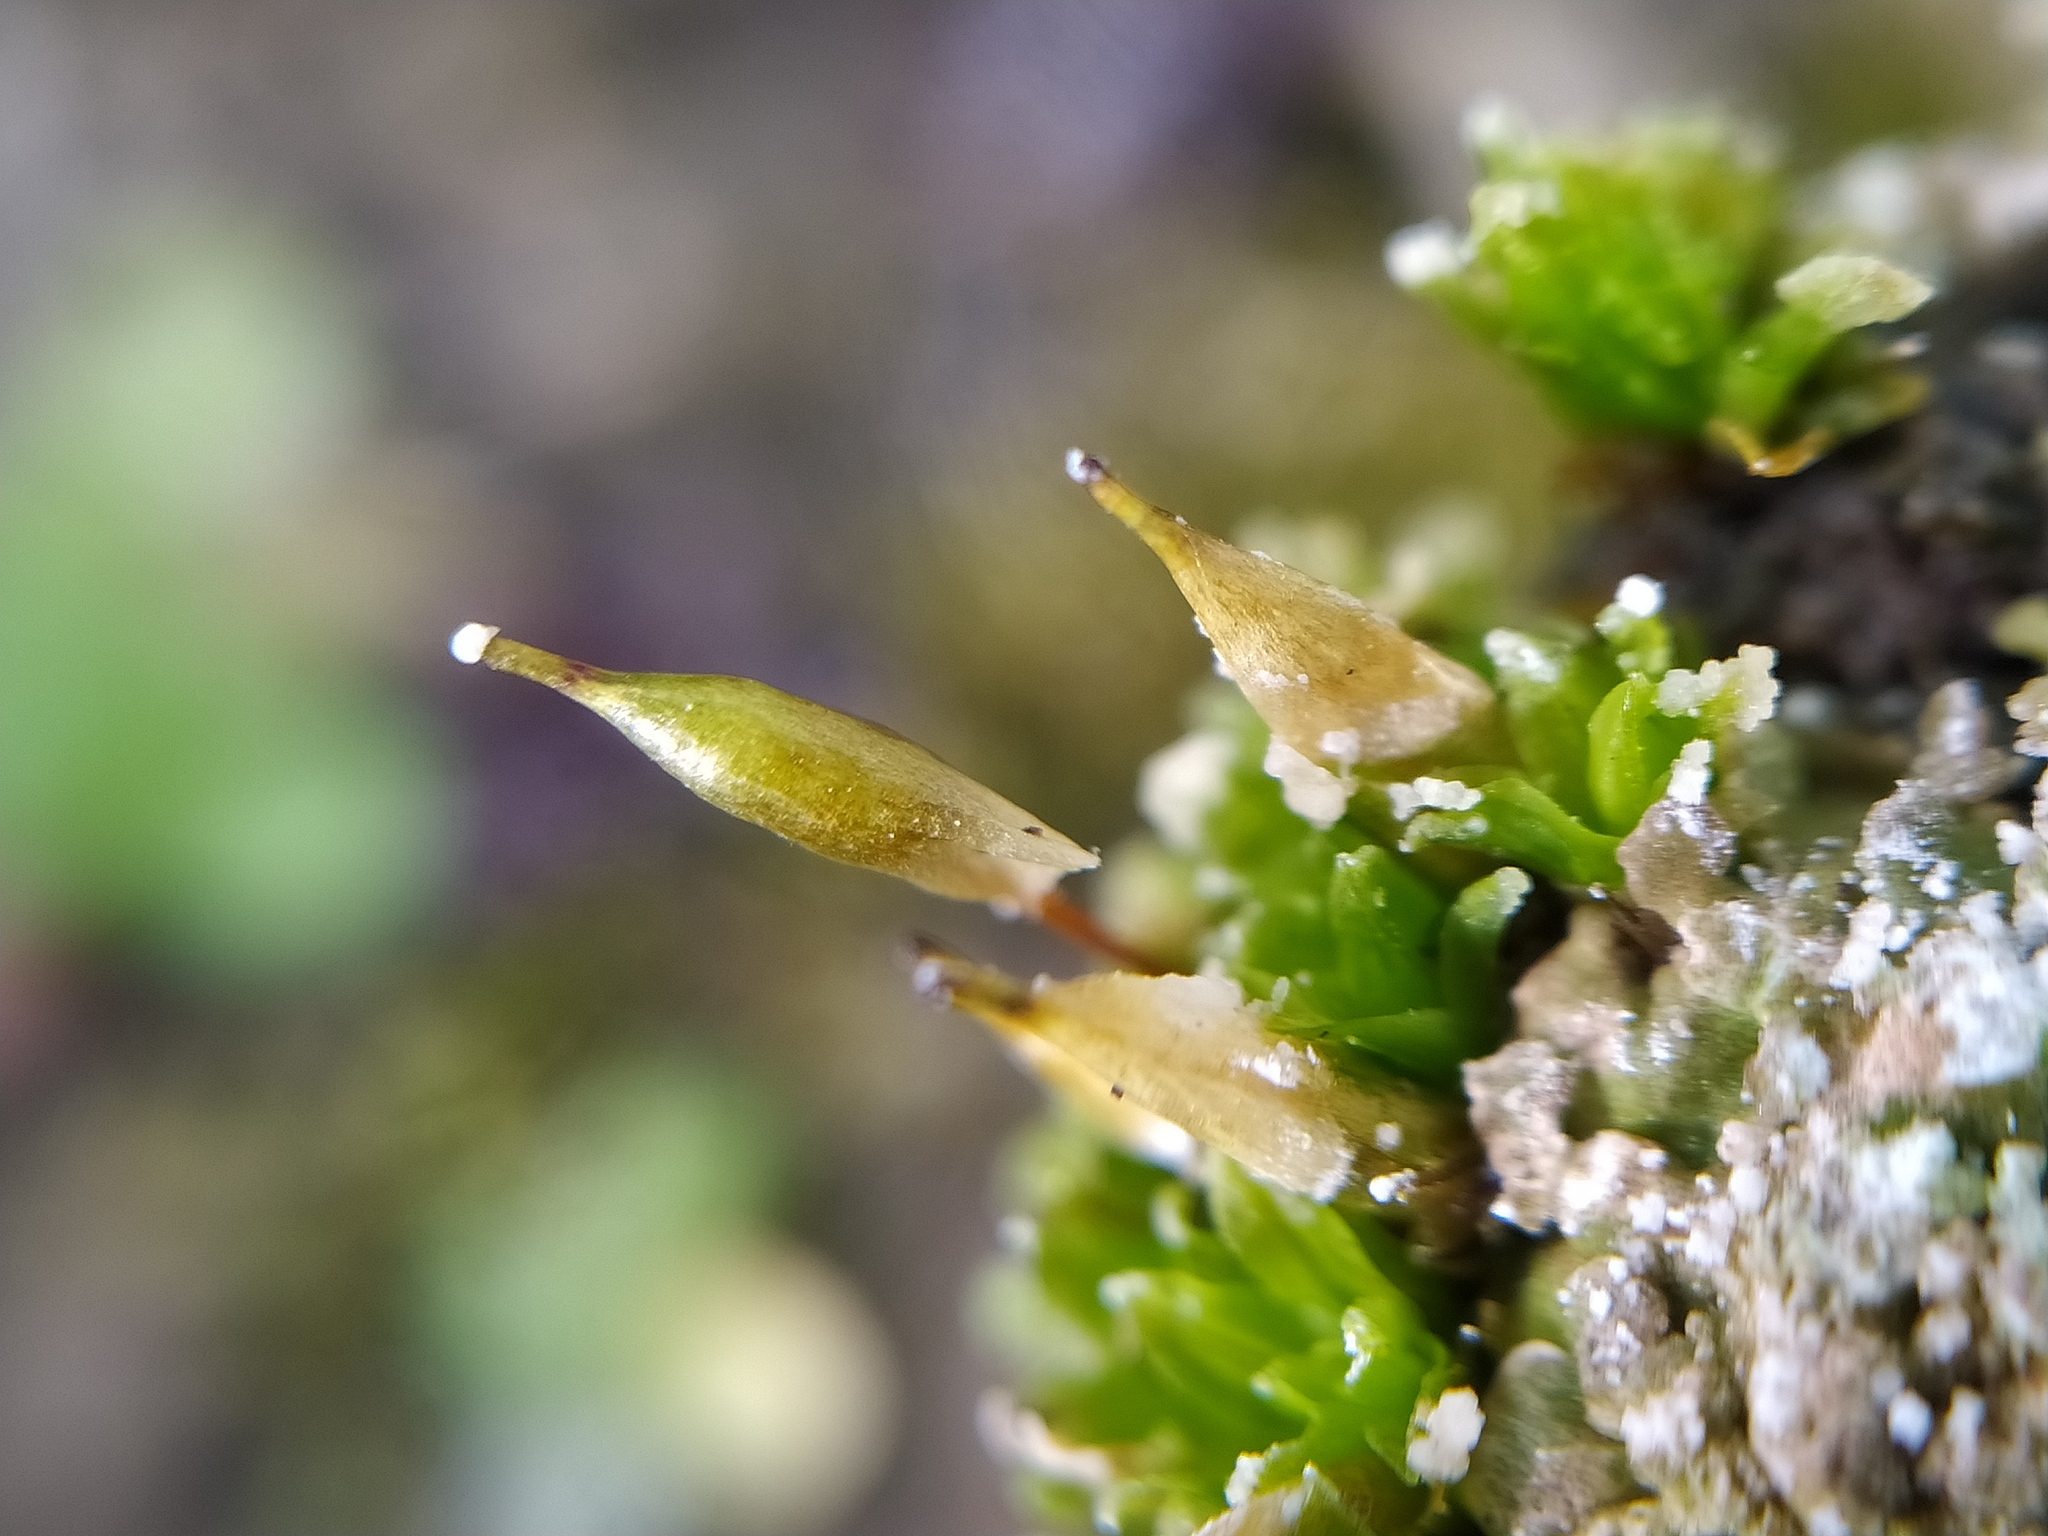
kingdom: Plantae
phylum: Bryophyta
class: Bryopsida
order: Encalyptales
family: Encalyptaceae
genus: Encalypta
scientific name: Encalypta vulgaris
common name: Common extinguisher-moss
